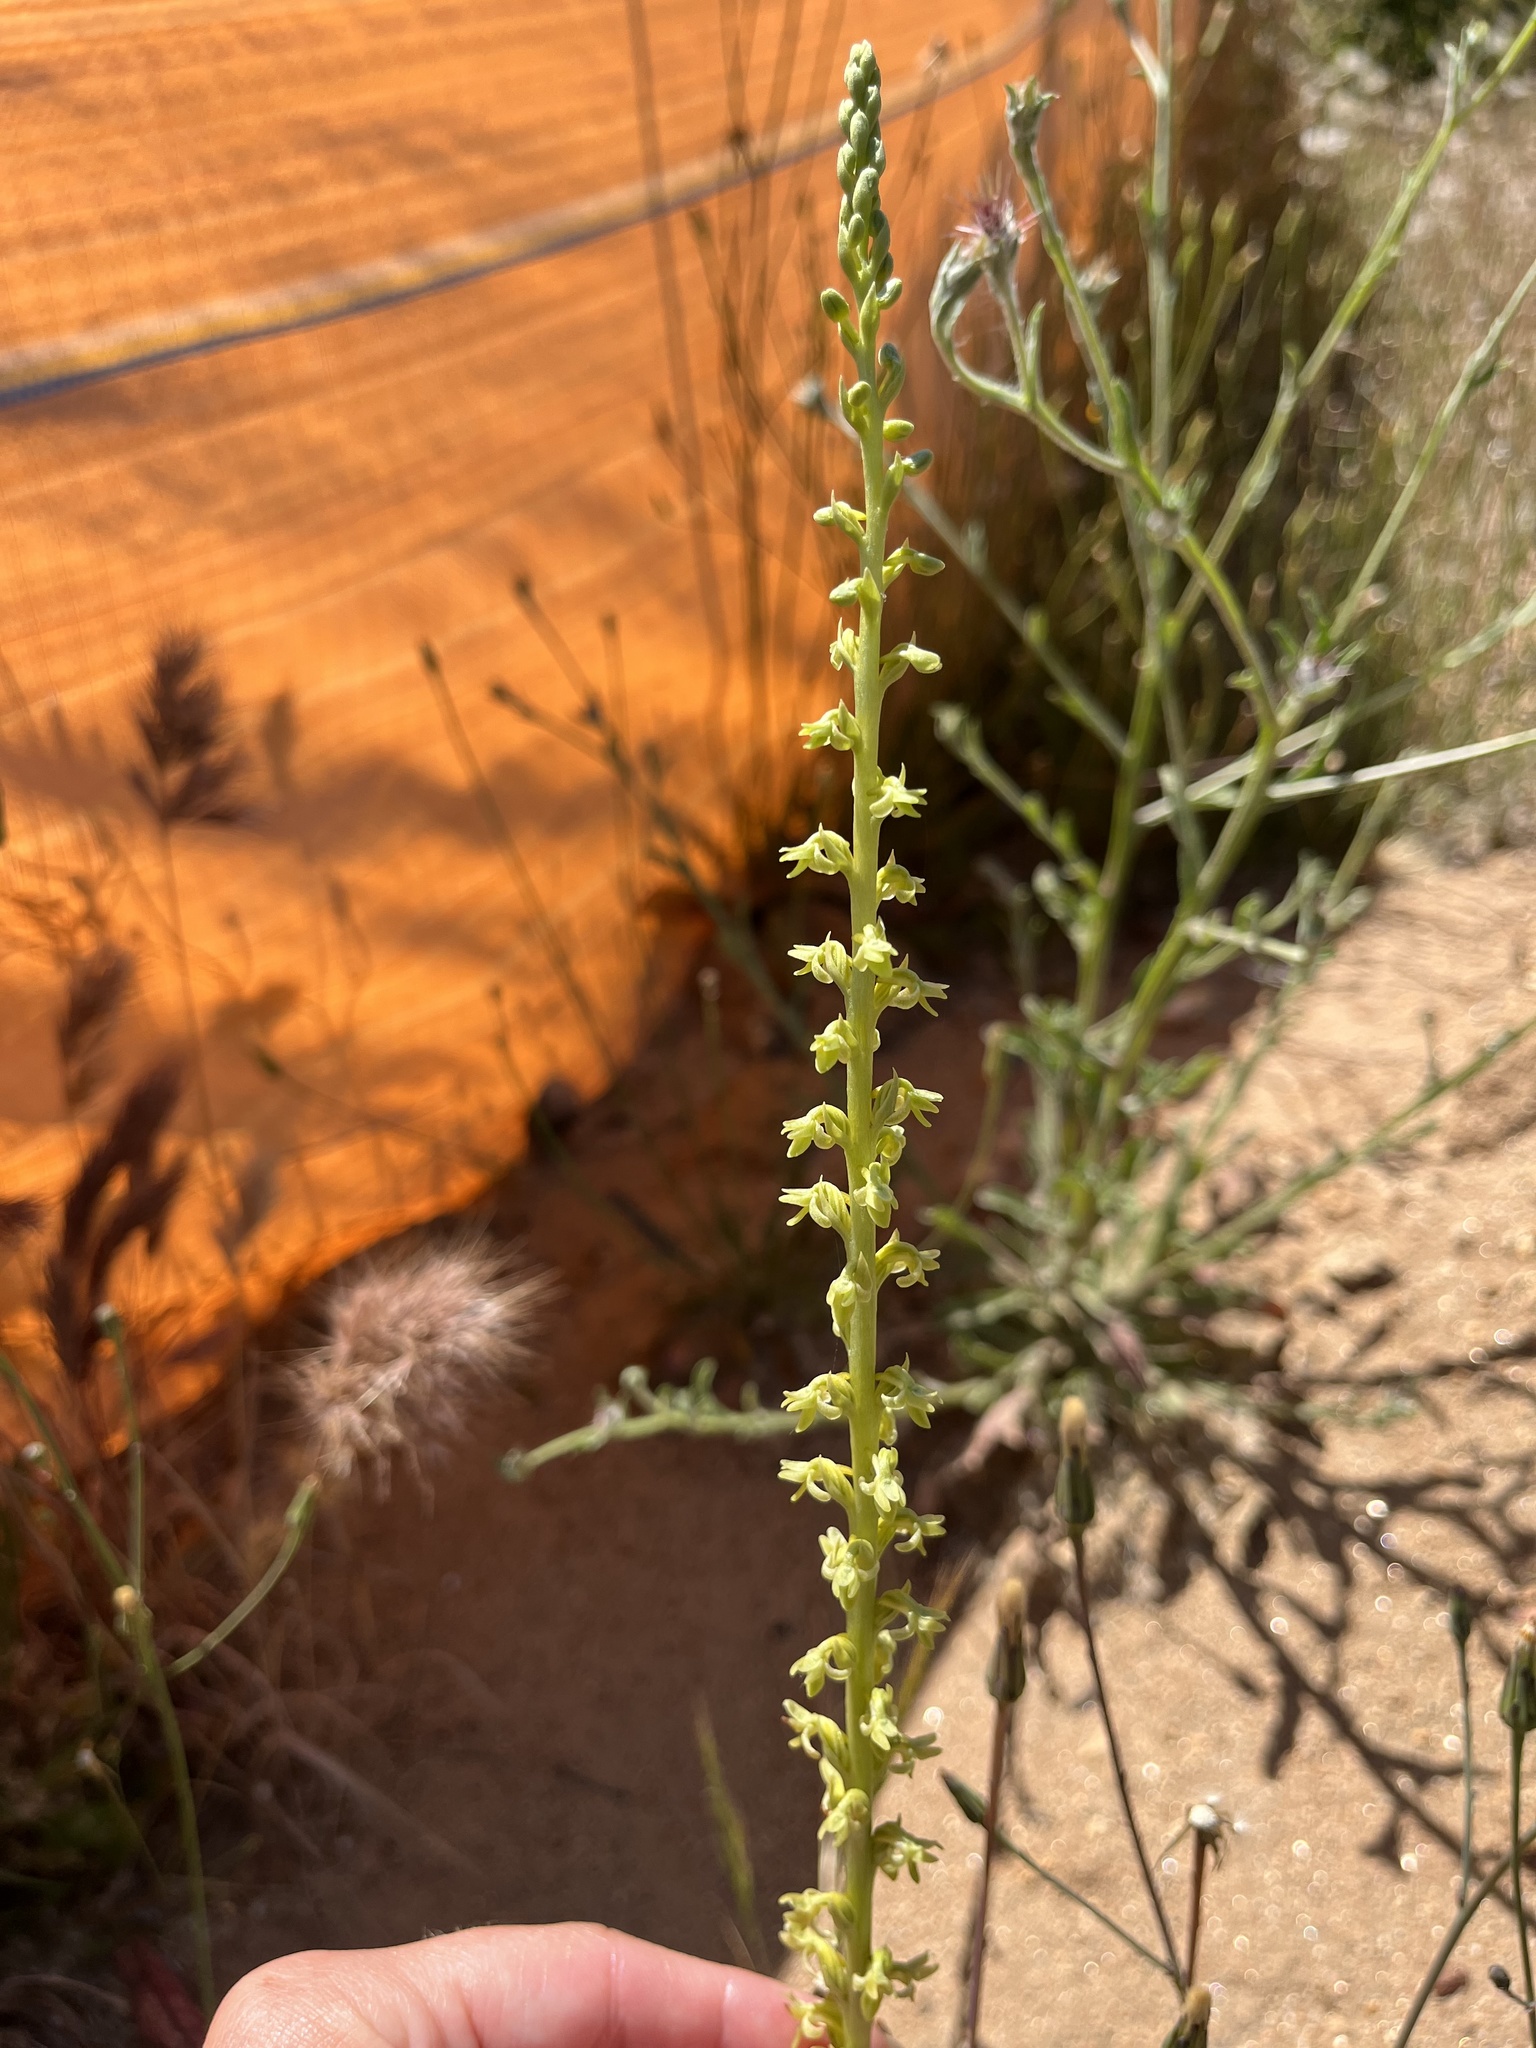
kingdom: Plantae
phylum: Tracheophyta
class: Liliopsida
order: Asparagales
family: Orchidaceae
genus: Platanthera
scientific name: Platanthera cooperi
